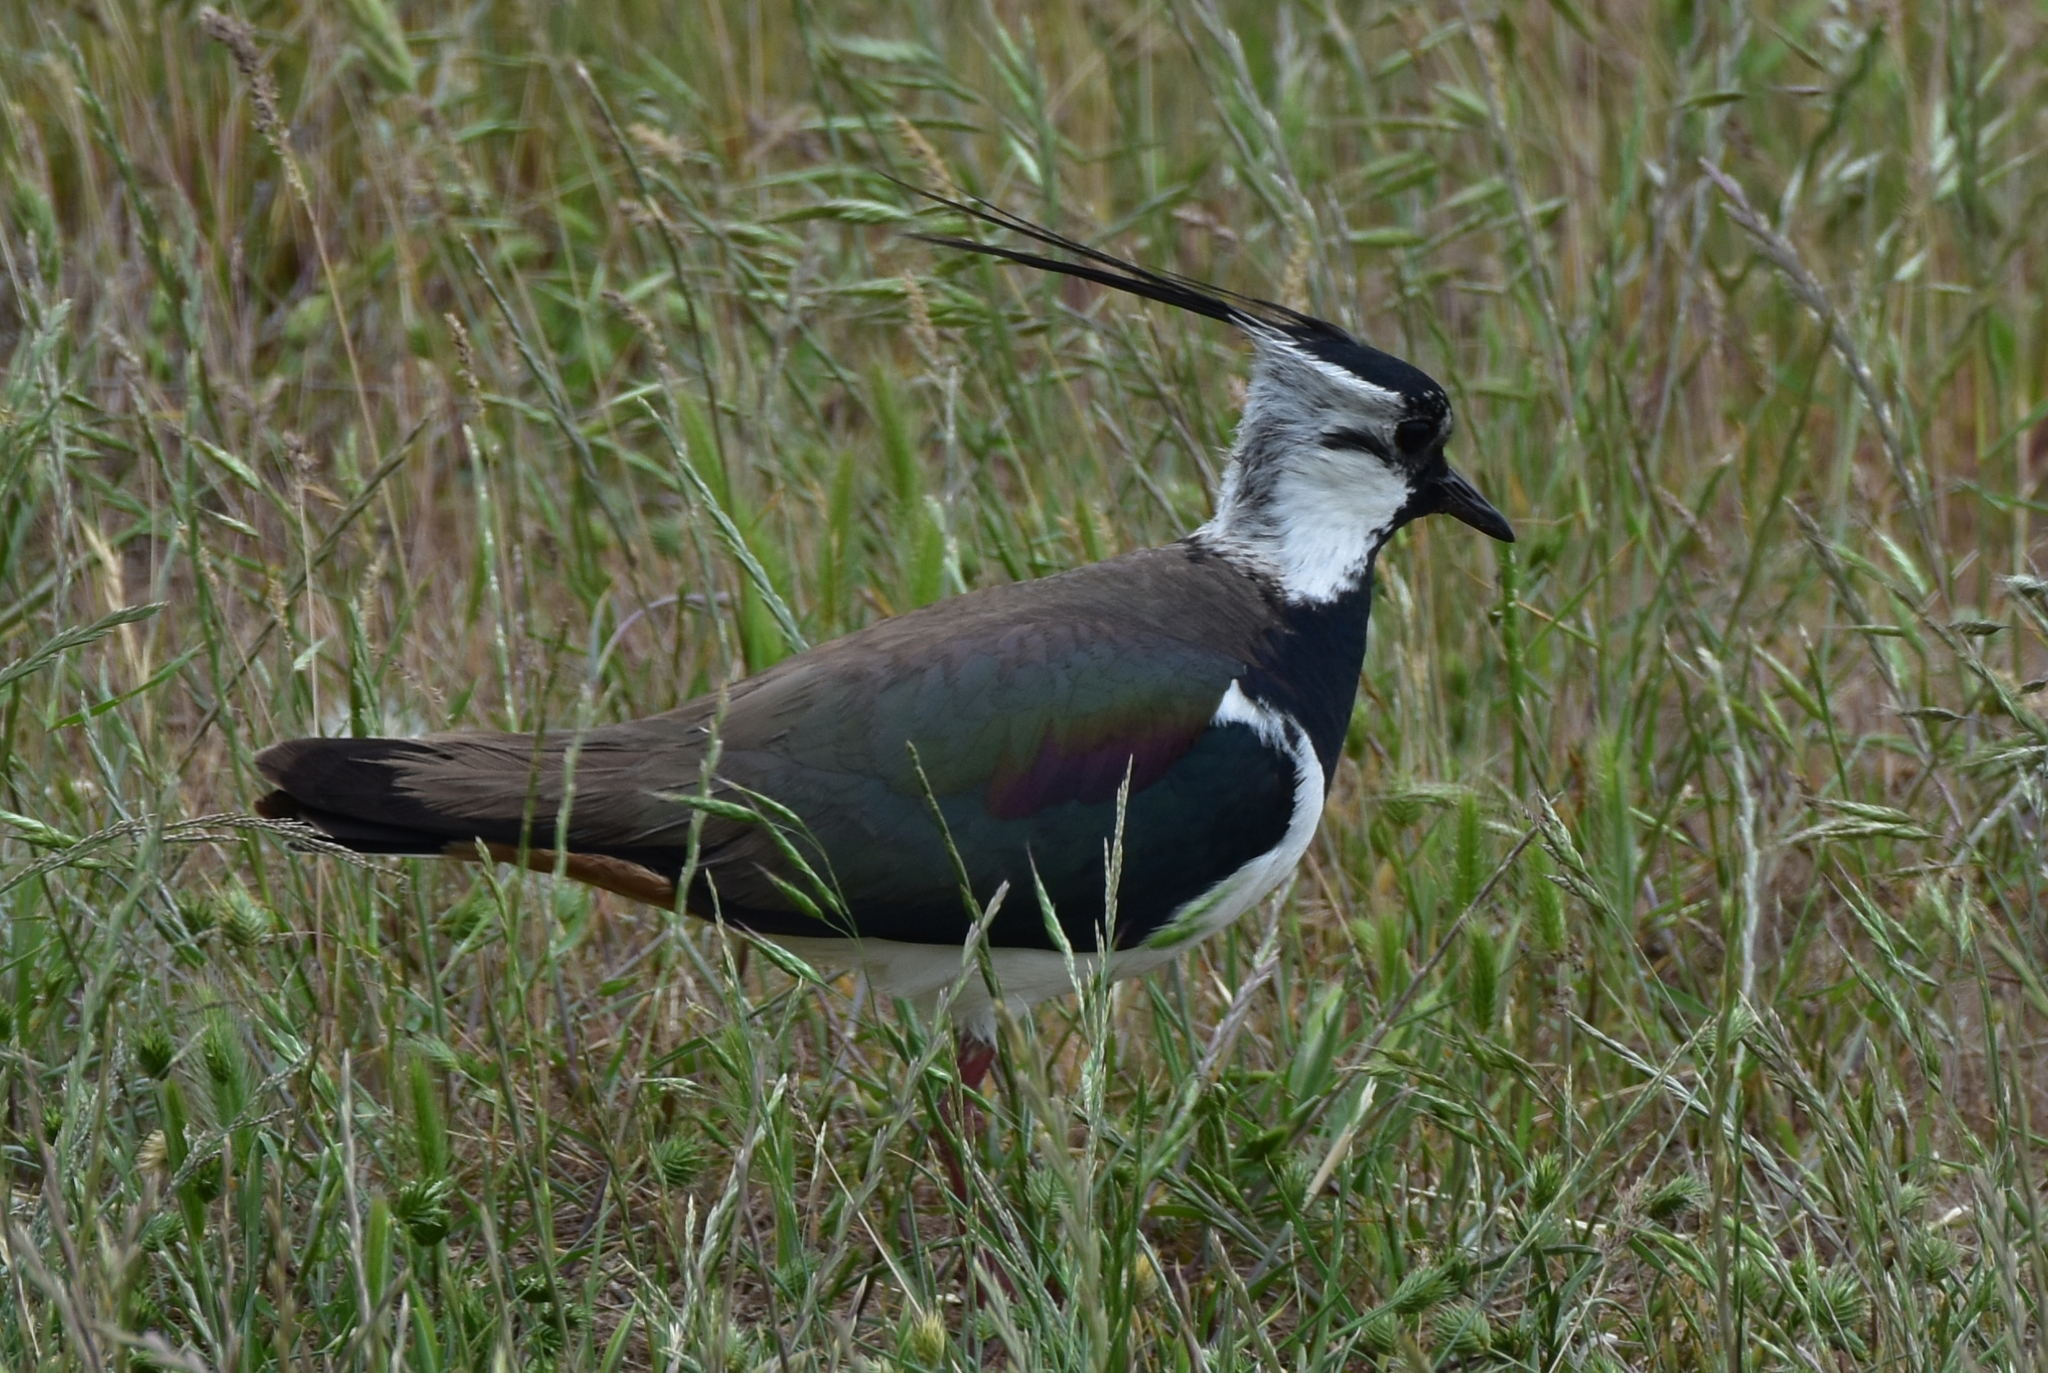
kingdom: Animalia
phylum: Chordata
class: Aves
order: Charadriiformes
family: Charadriidae
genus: Vanellus
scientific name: Vanellus vanellus
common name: Northern lapwing
